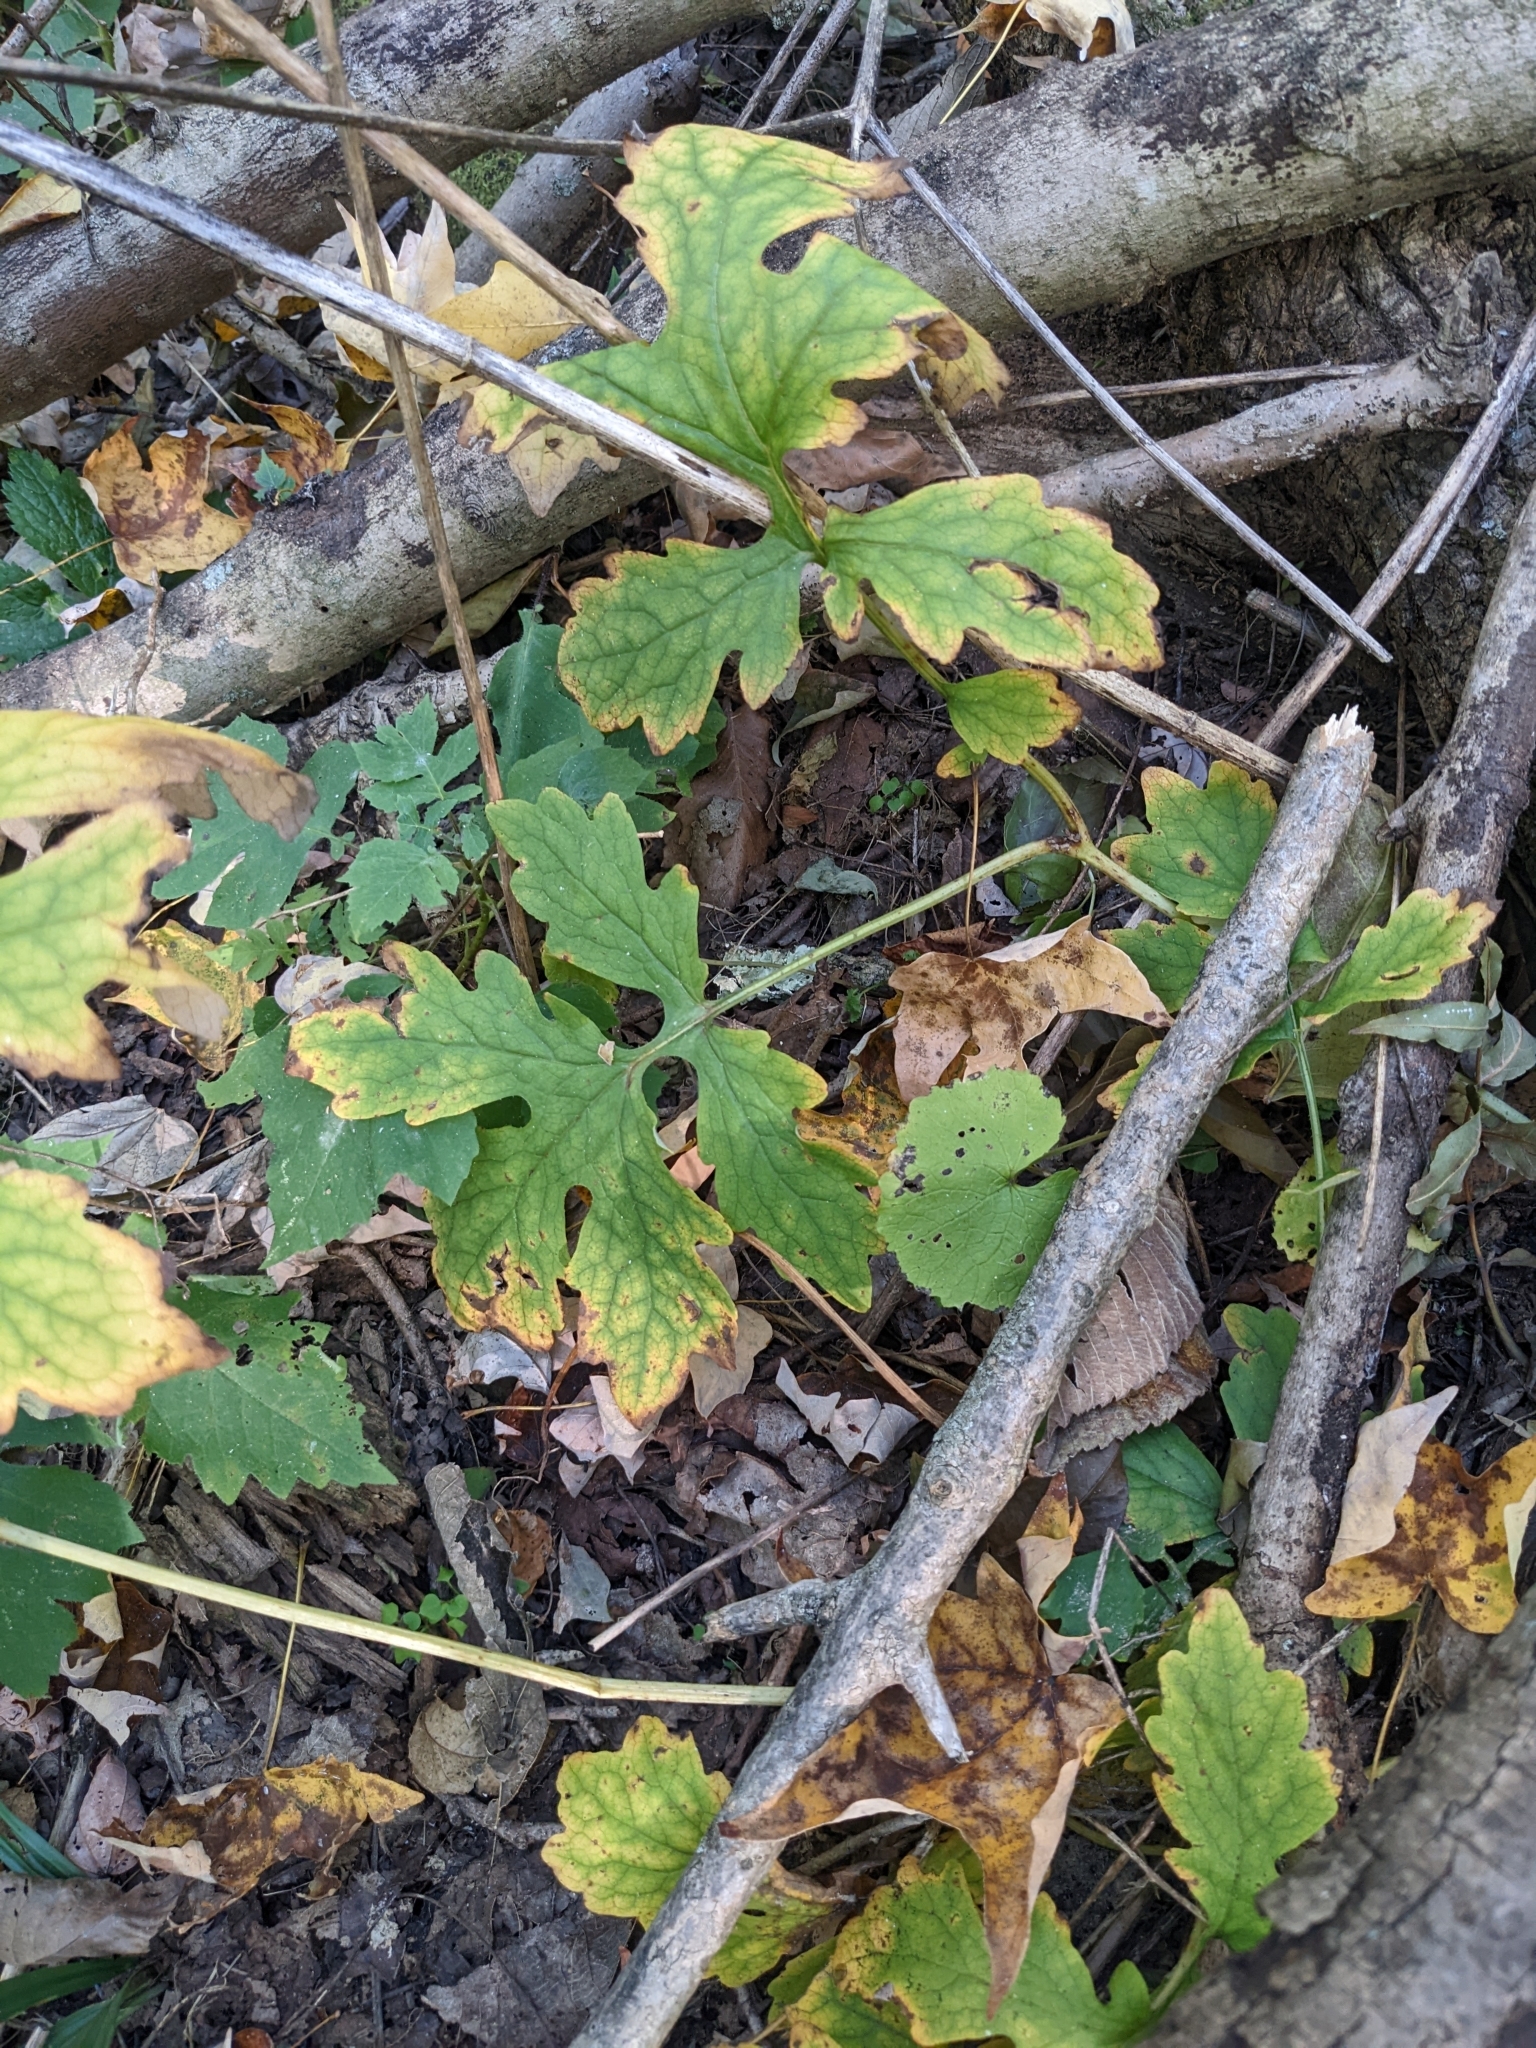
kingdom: Plantae
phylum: Tracheophyta
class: Magnoliopsida
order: Ranunculales
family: Papaveraceae
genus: Stylophorum
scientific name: Stylophorum diphyllum
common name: Celandine poppy
